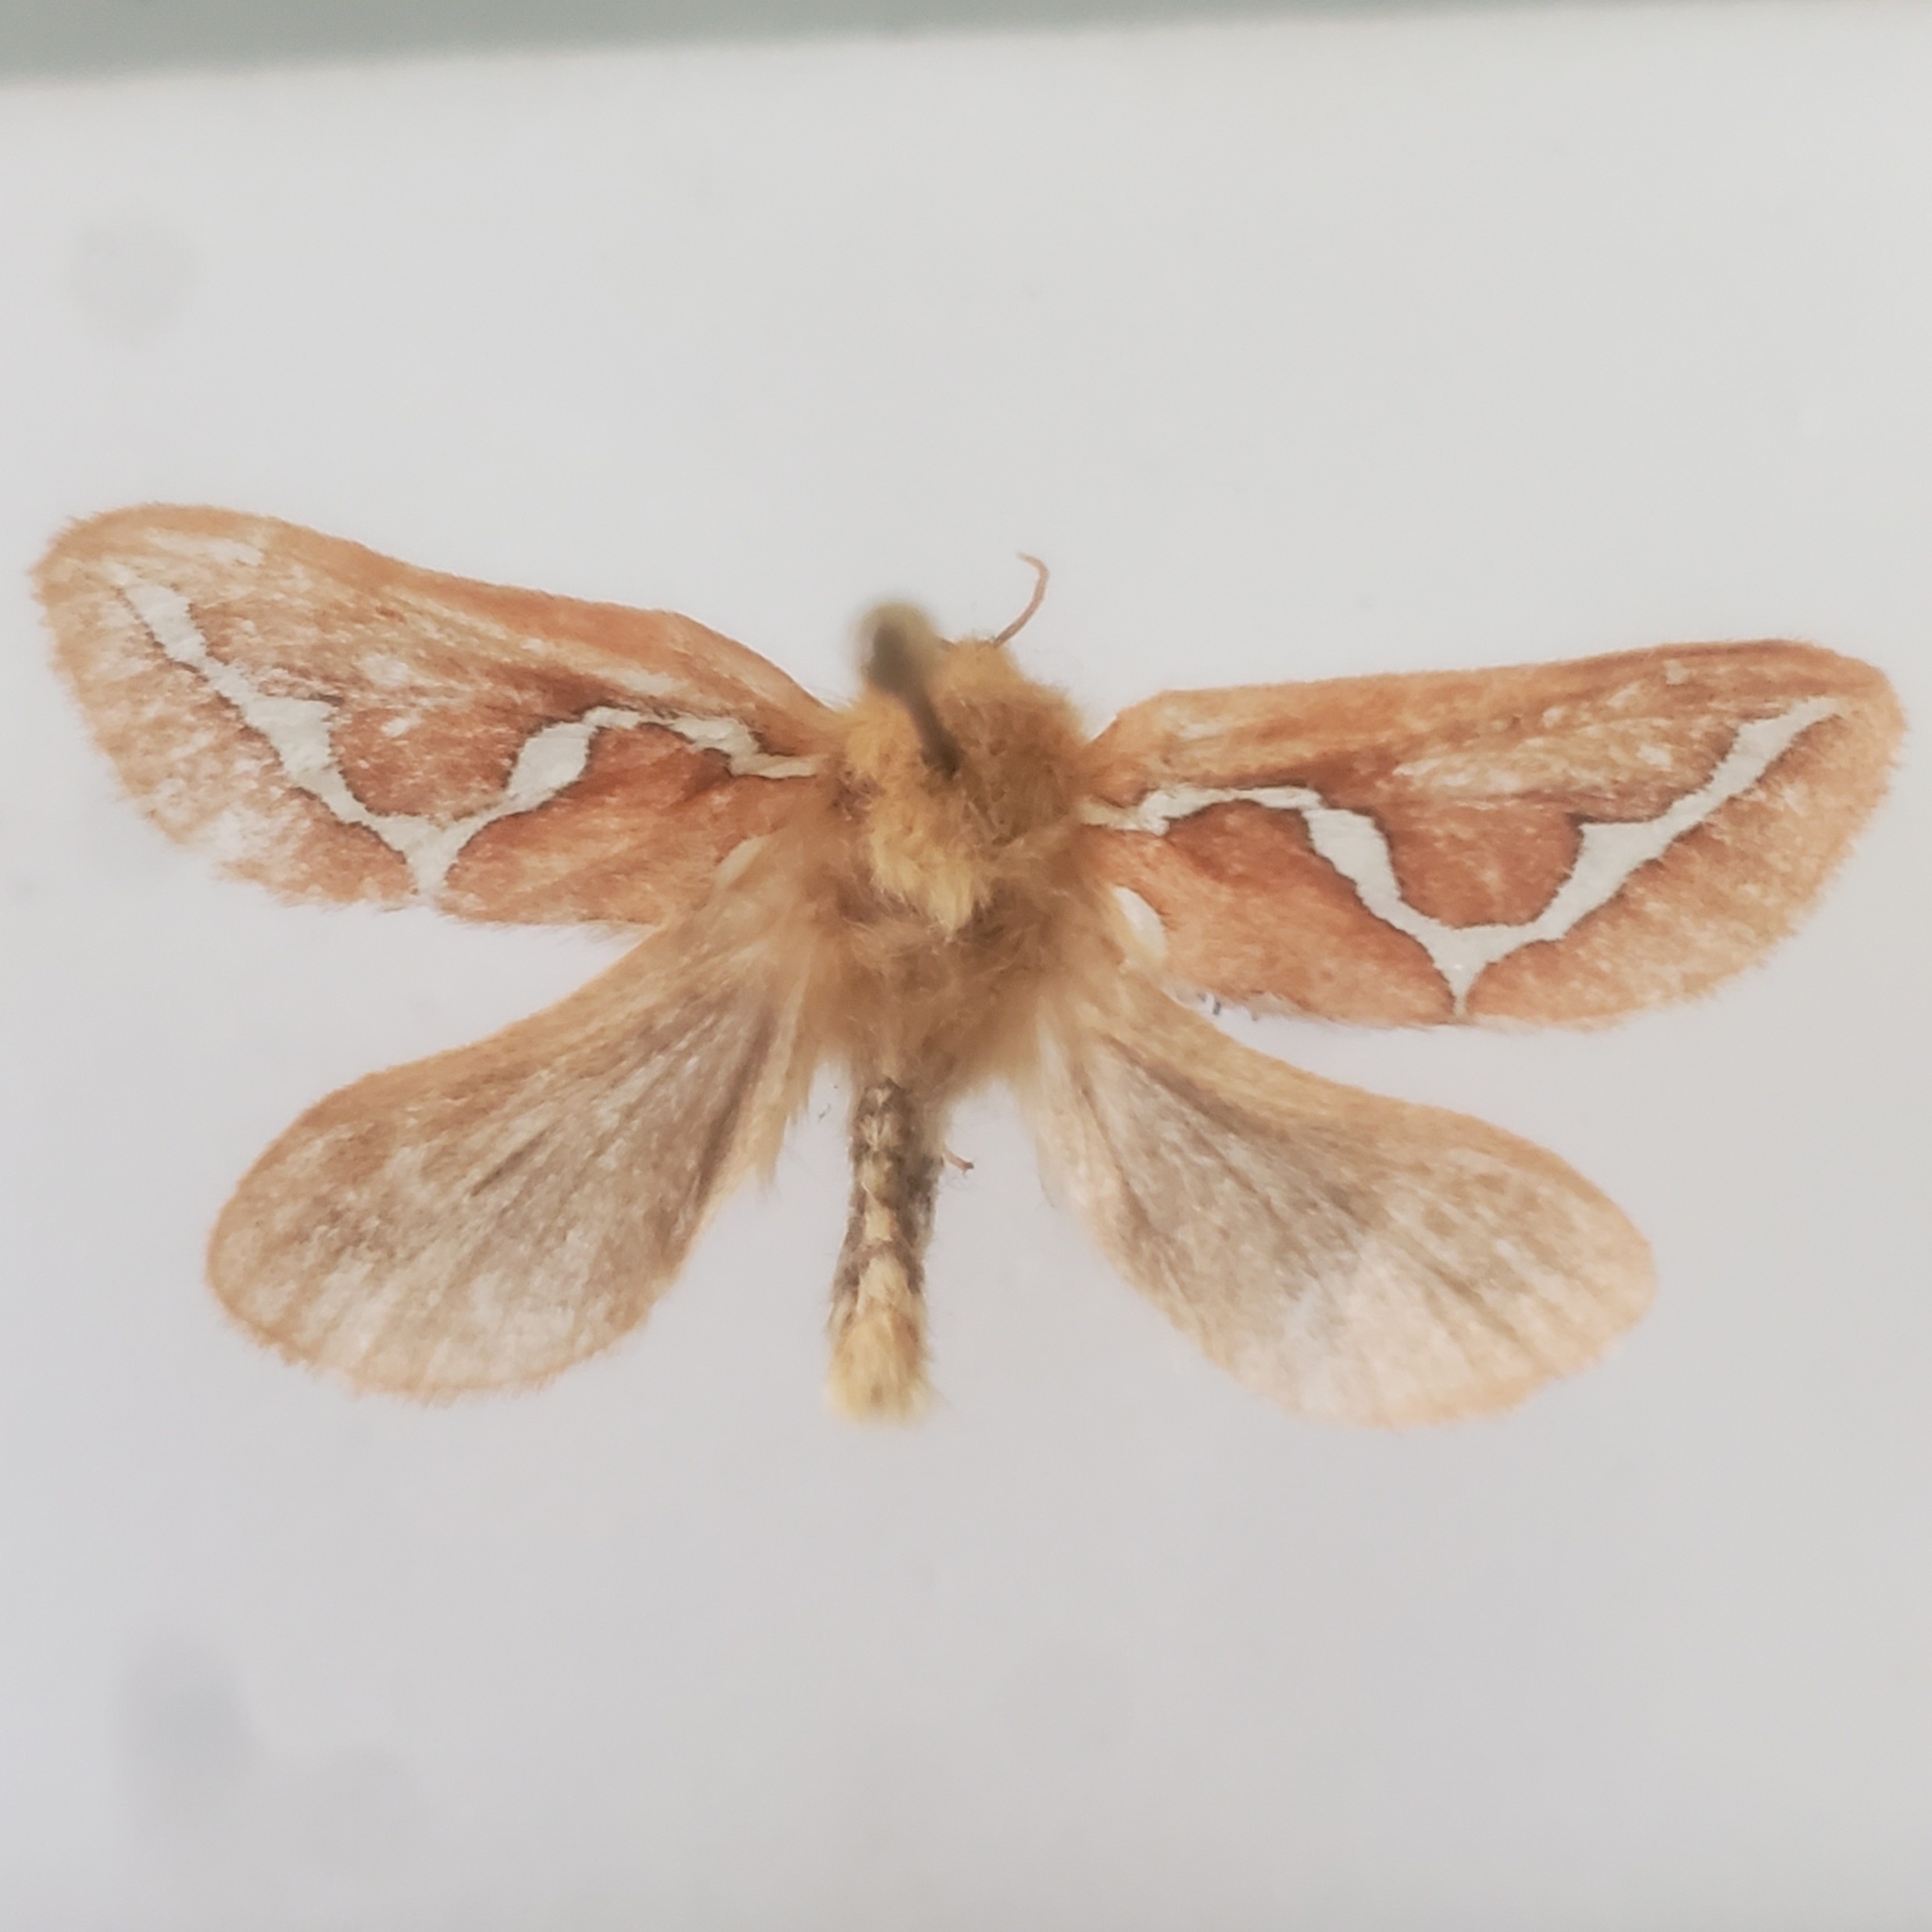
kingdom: Animalia
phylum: Arthropoda
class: Insecta
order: Lepidoptera
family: Hepialidae
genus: Gazoryctra
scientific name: Gazoryctra novigannus
